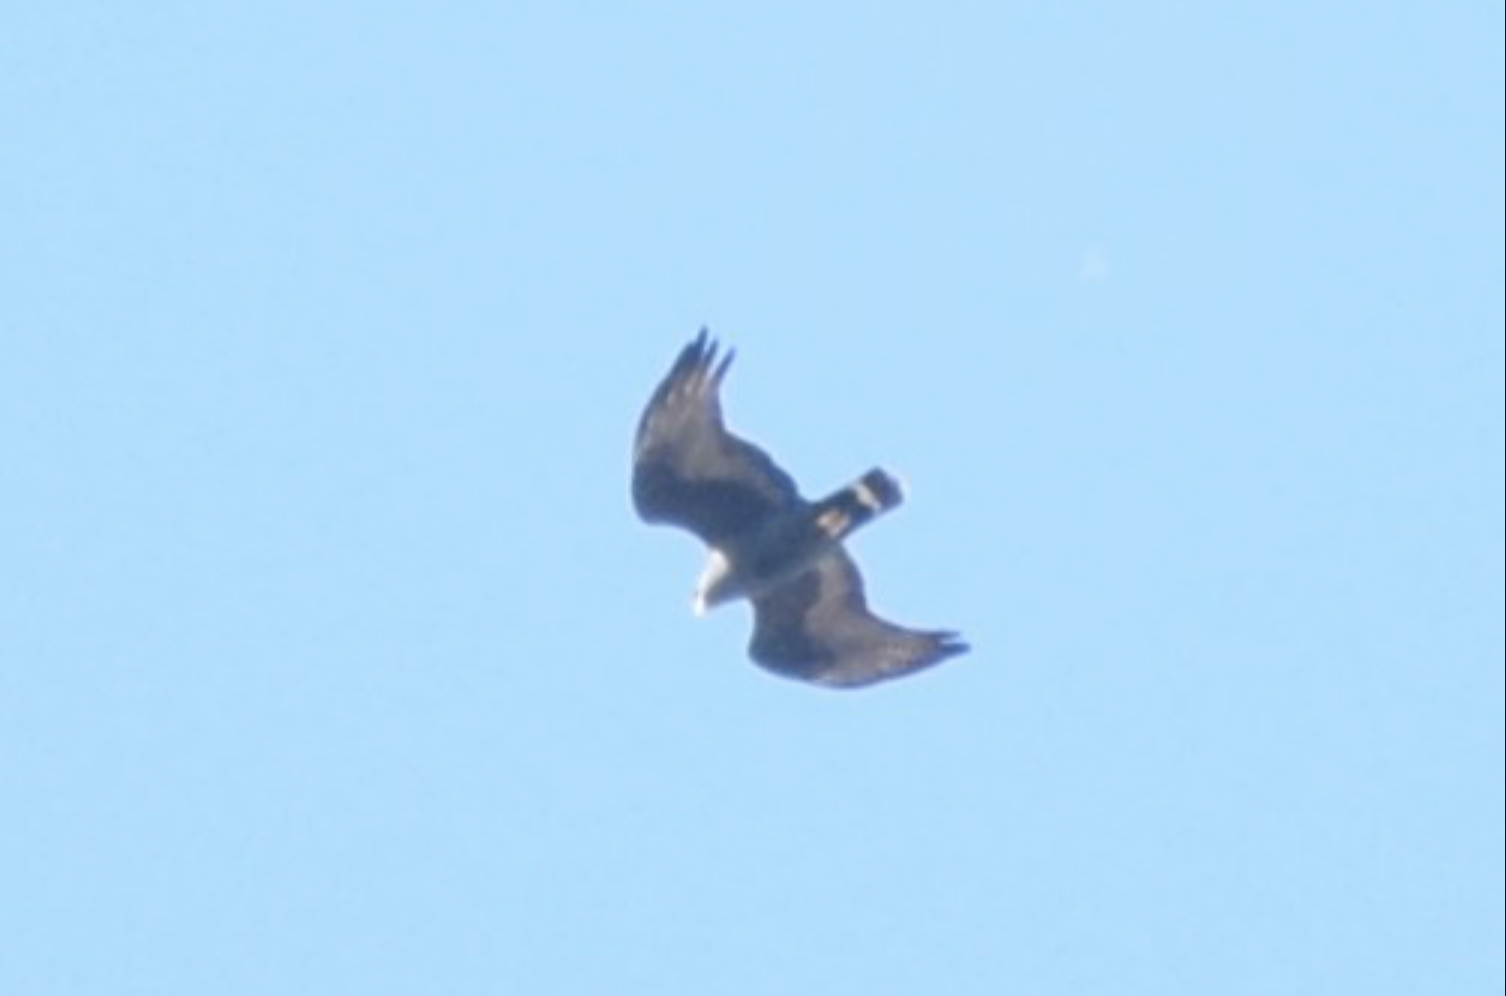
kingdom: Animalia
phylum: Chordata
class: Aves
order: Accipitriformes
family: Accipitridae
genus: Buteo
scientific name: Buteo albonotatus
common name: Zone-tailed hawk
